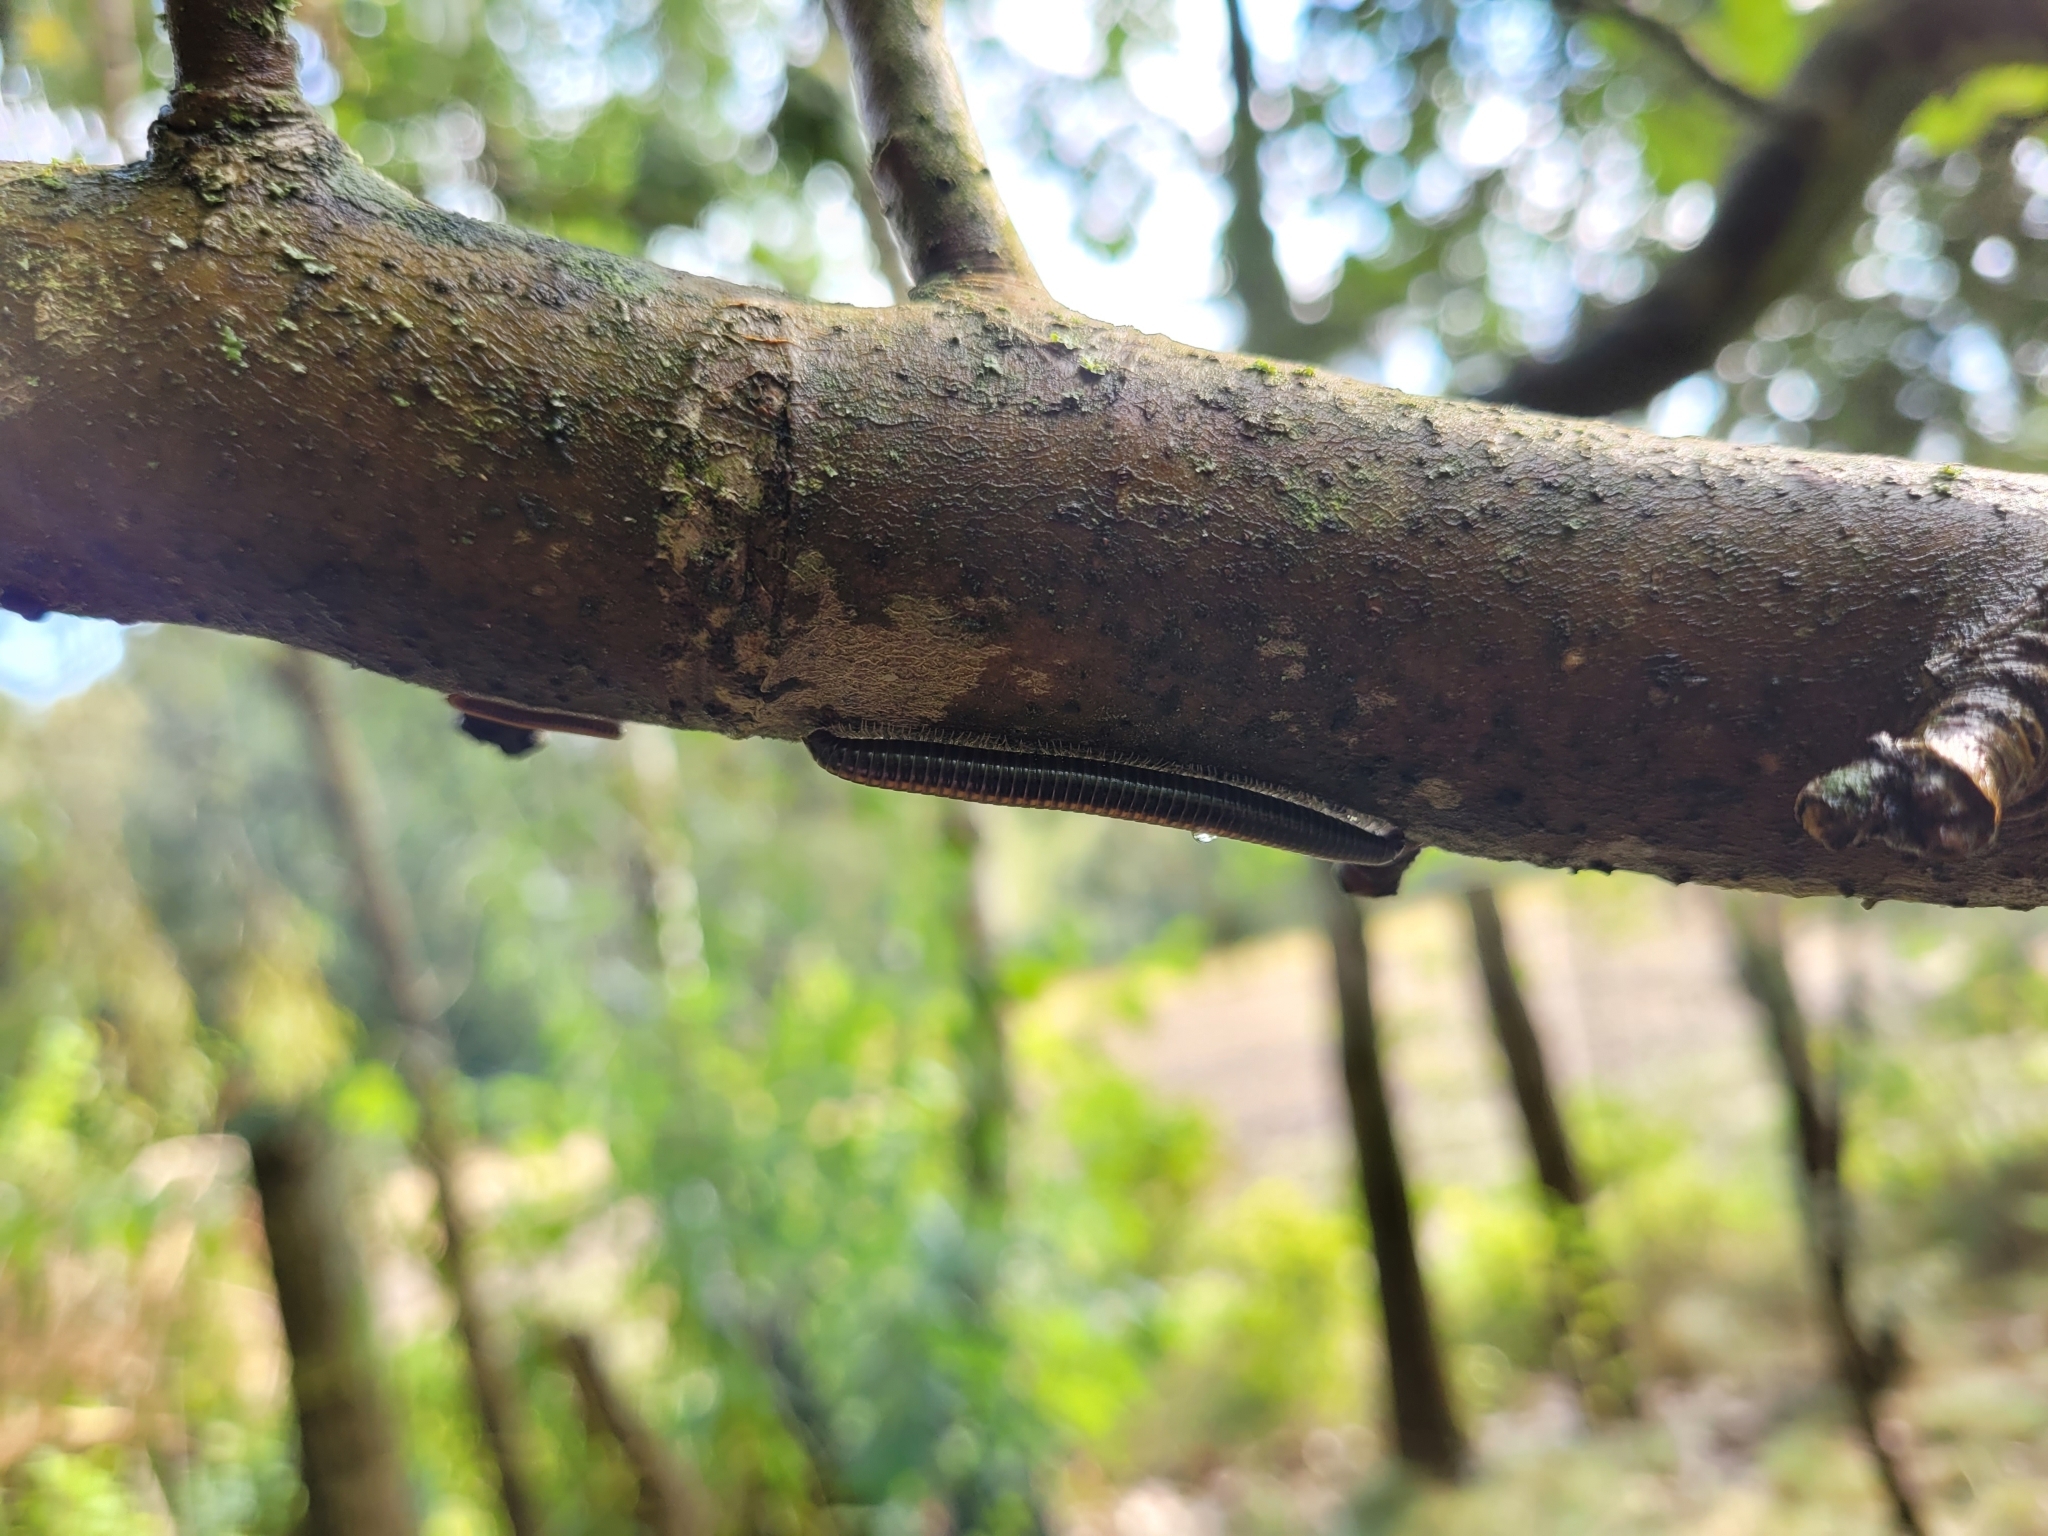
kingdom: Animalia
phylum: Arthropoda
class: Diplopoda
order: Julida
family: Julidae
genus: Ommatoiulus
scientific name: Ommatoiulus sabulosus
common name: Striped millipede
